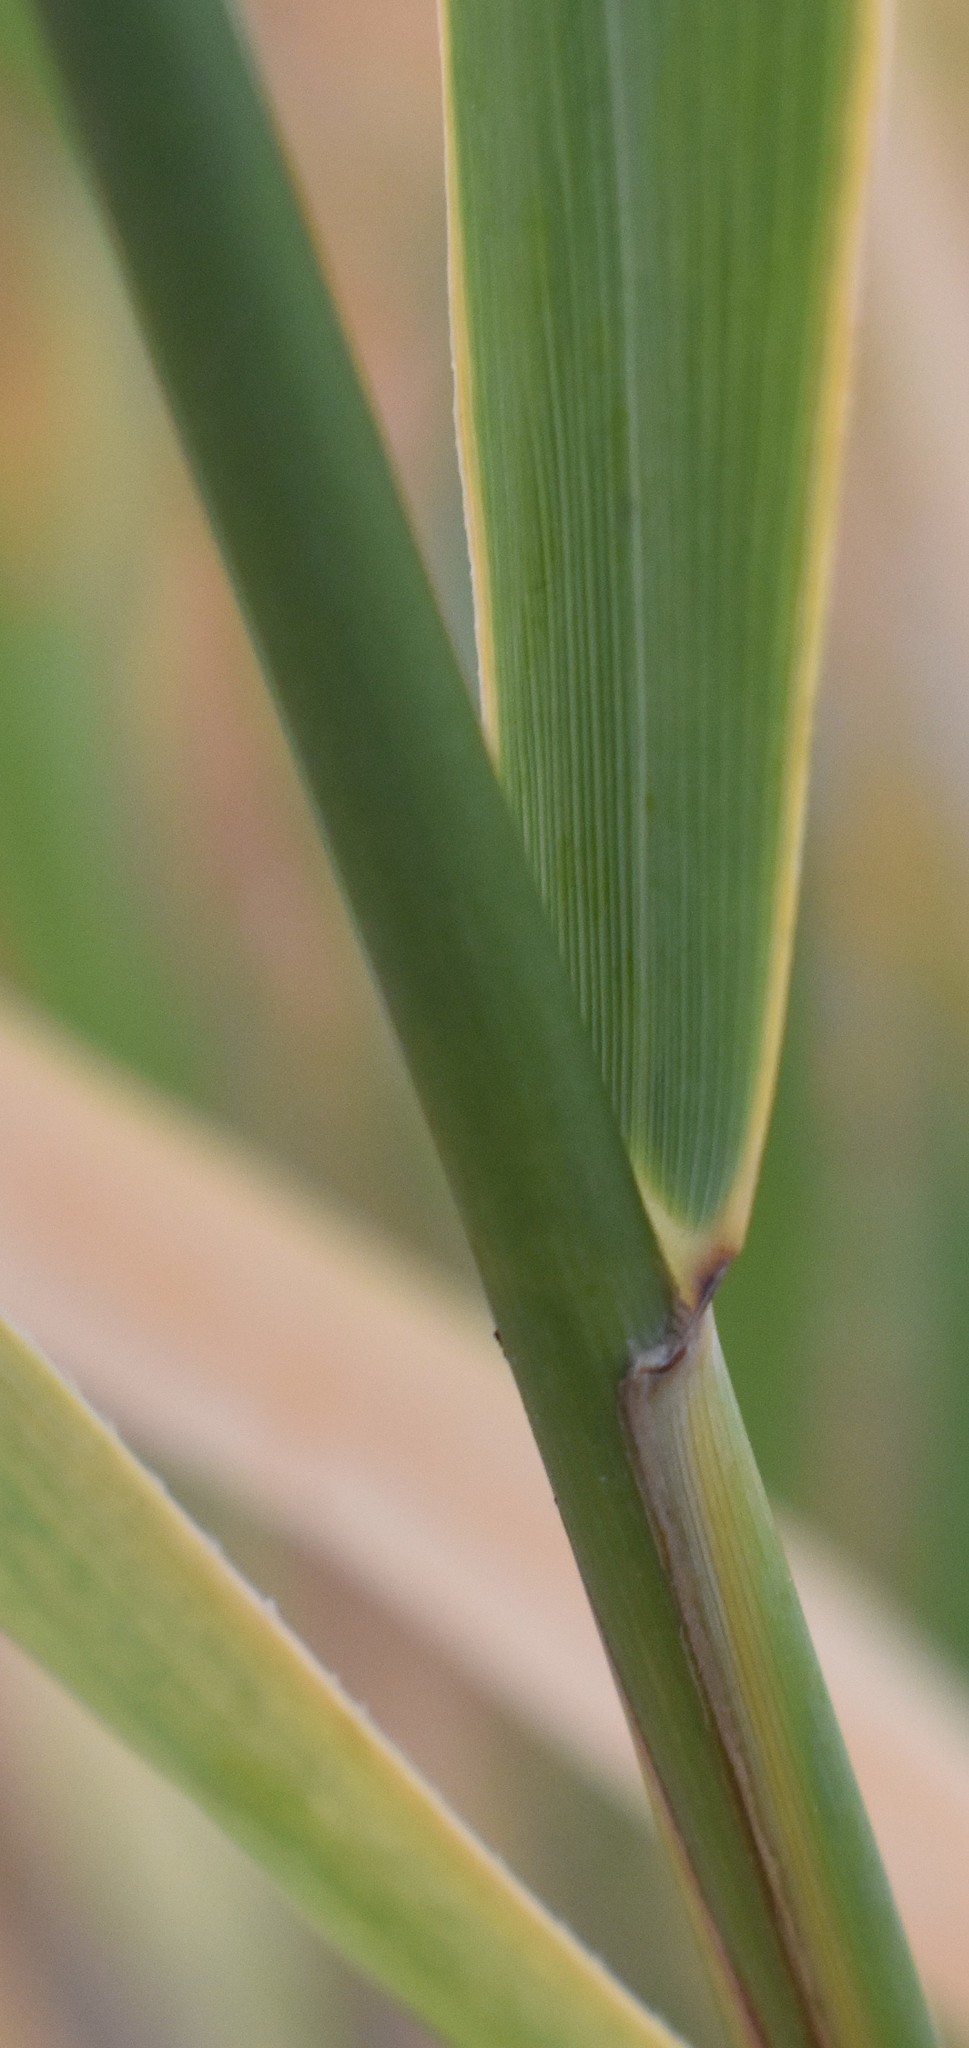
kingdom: Plantae
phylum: Tracheophyta
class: Liliopsida
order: Poales
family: Poaceae
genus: Phragmites
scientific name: Phragmites australis
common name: Common reed
